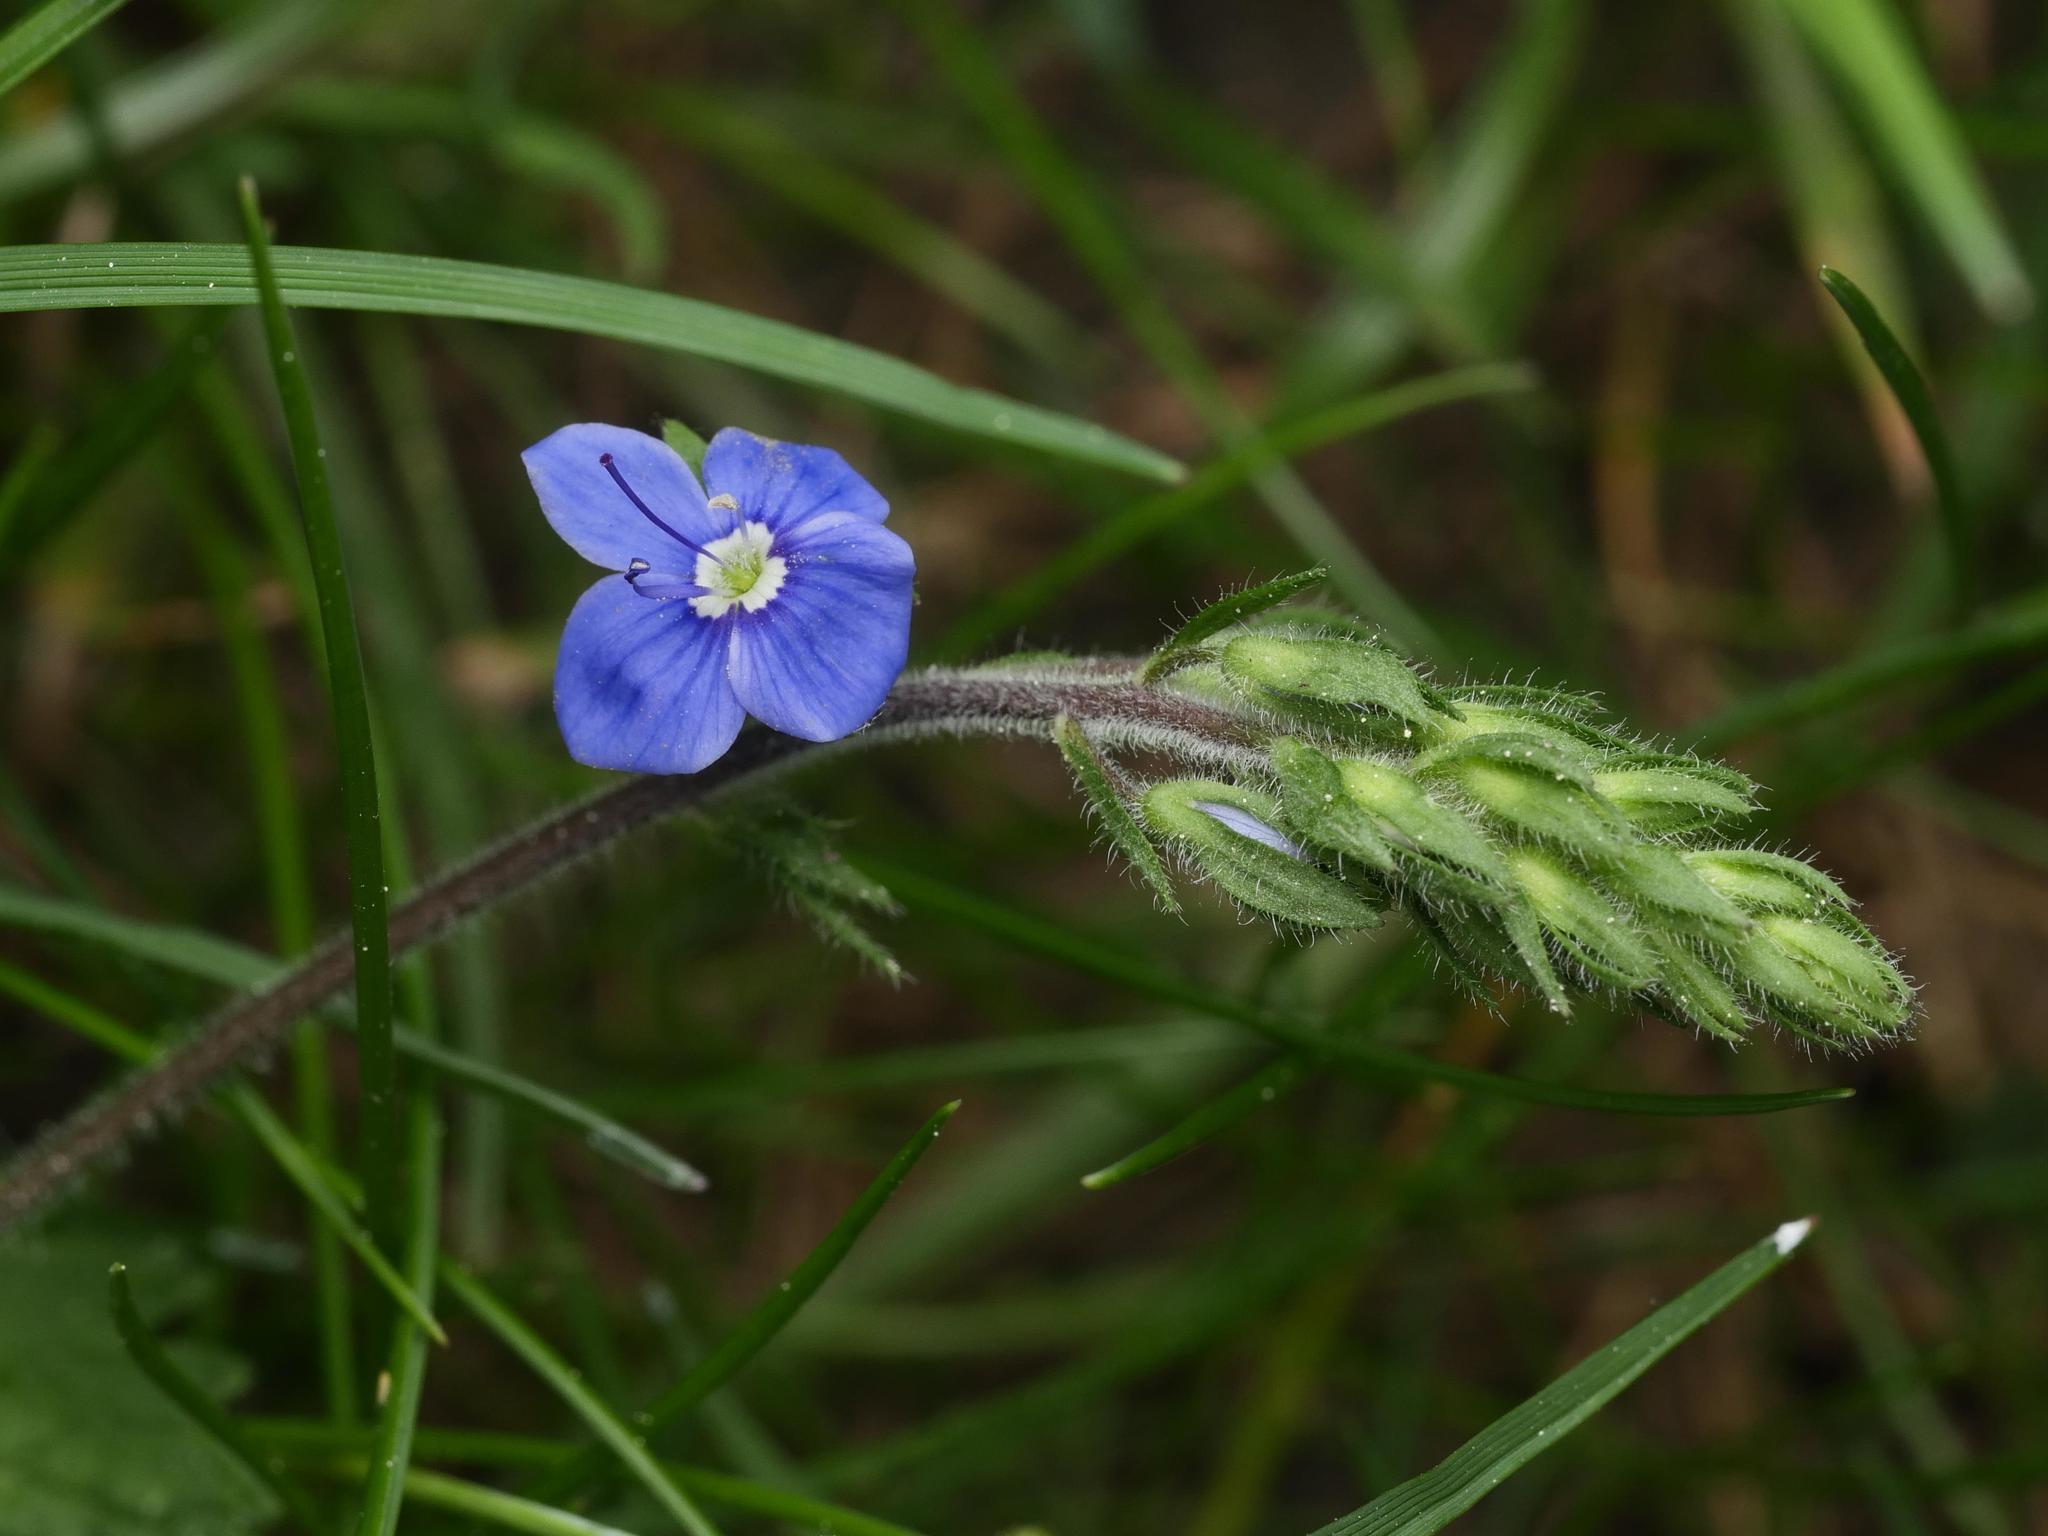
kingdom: Plantae
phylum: Tracheophyta
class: Magnoliopsida
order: Lamiales
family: Plantaginaceae
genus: Veronica
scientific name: Veronica chamaedrys
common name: Germander speedwell
